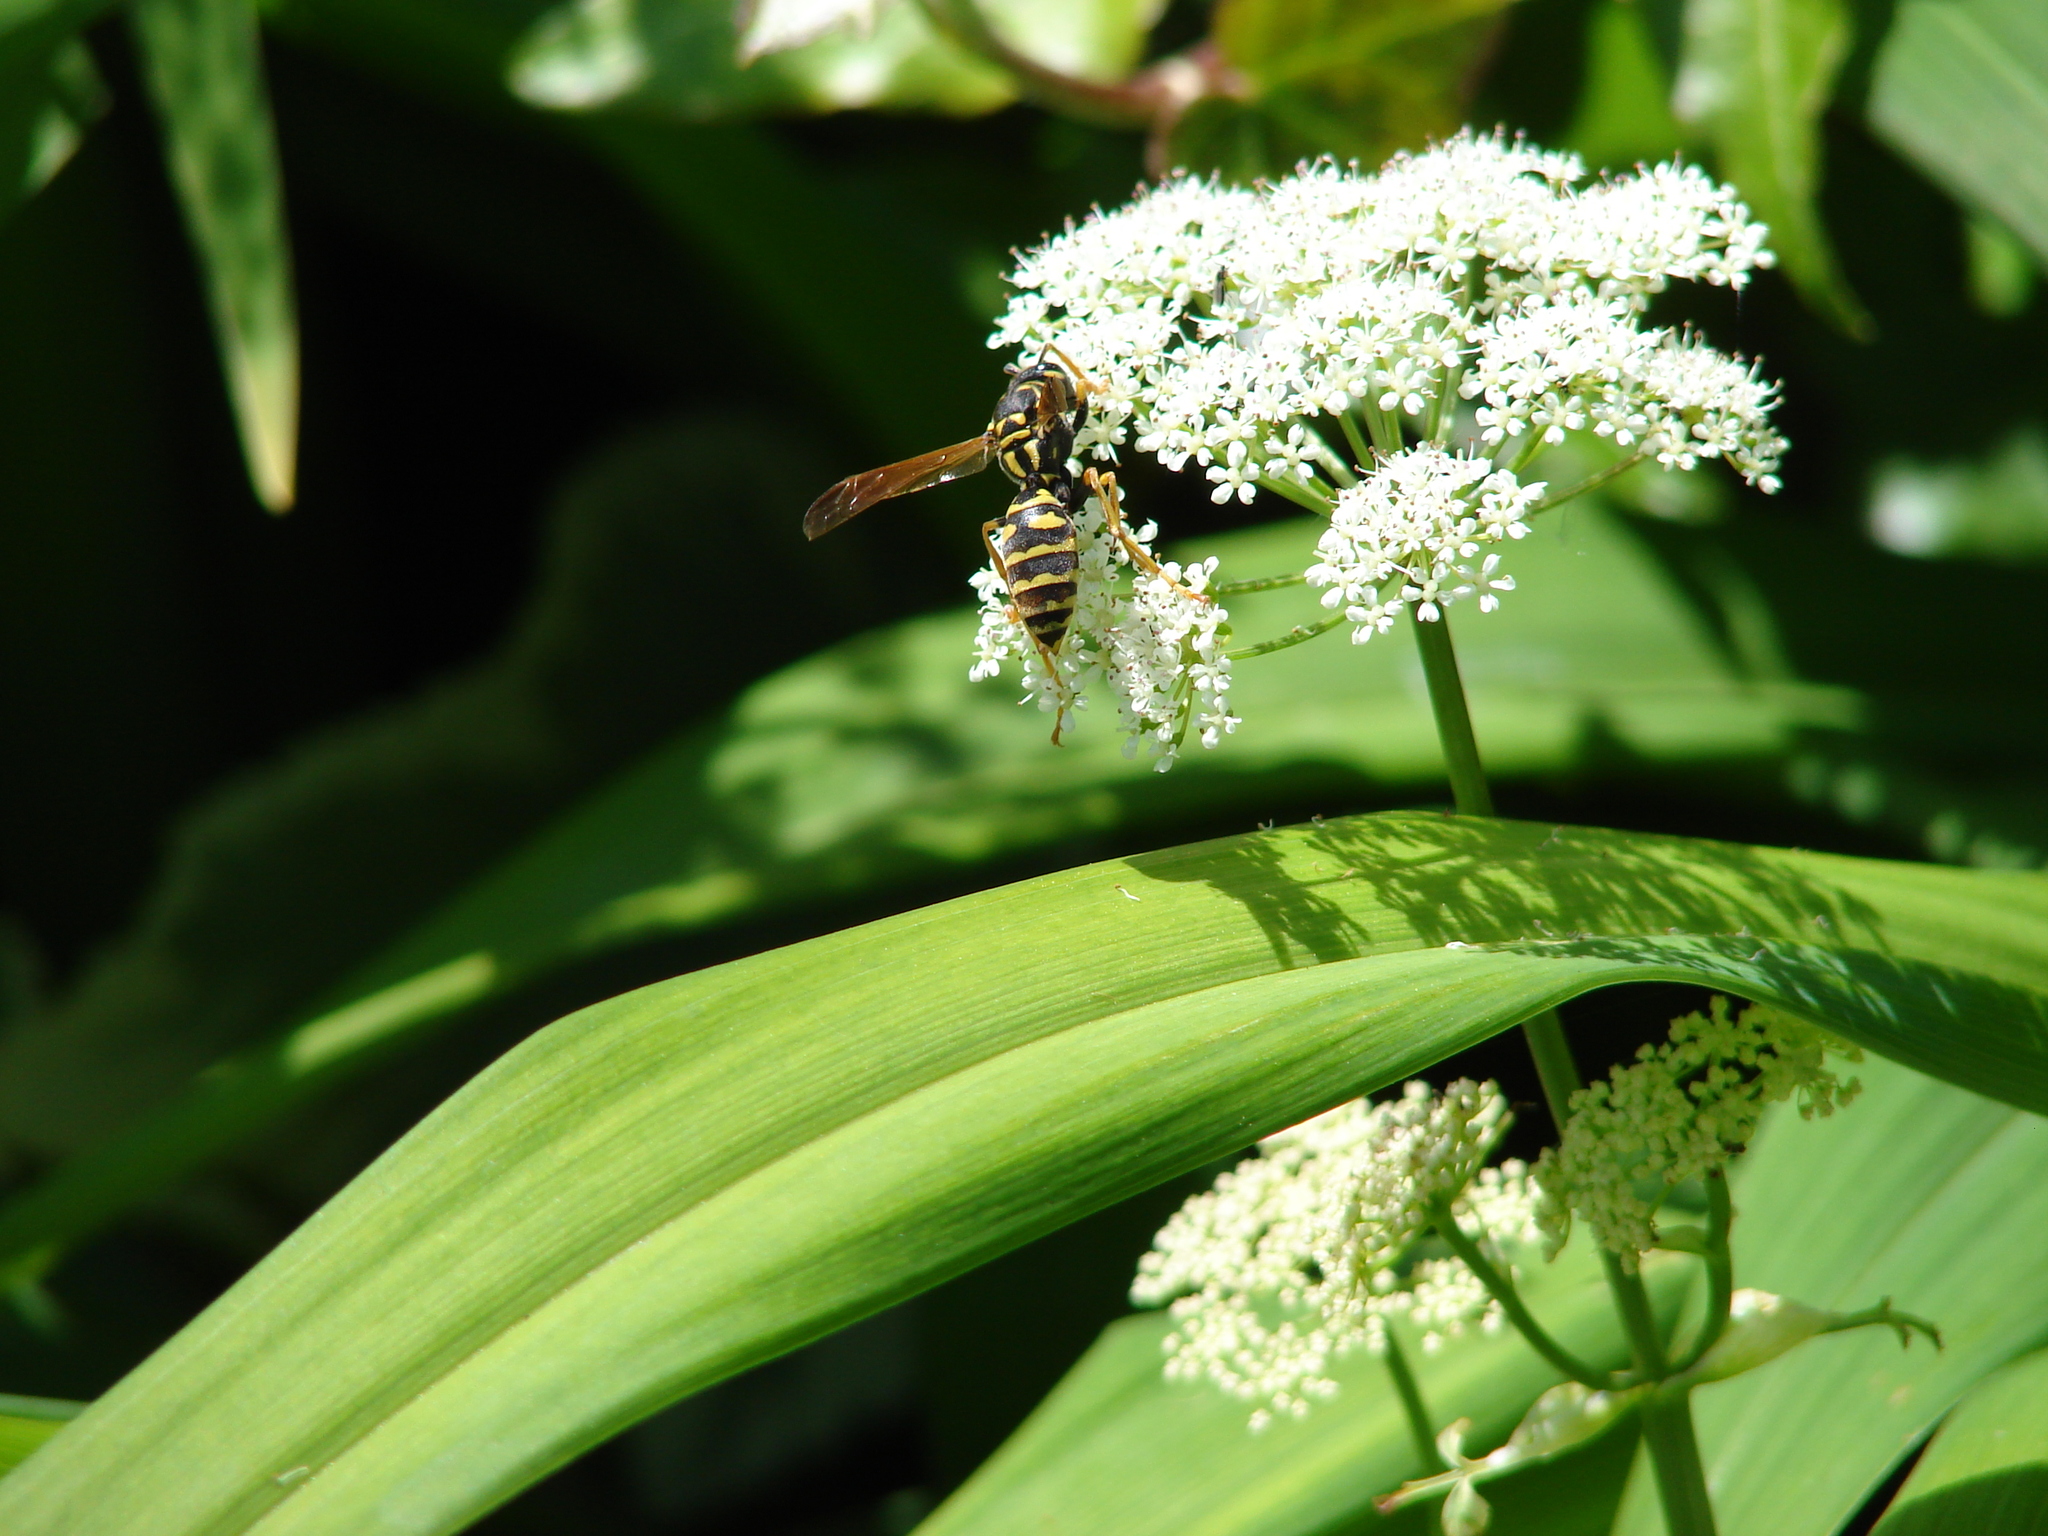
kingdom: Animalia
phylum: Arthropoda
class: Insecta
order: Hymenoptera
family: Eumenidae
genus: Polistes
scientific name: Polistes dominula
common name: Paper wasp
